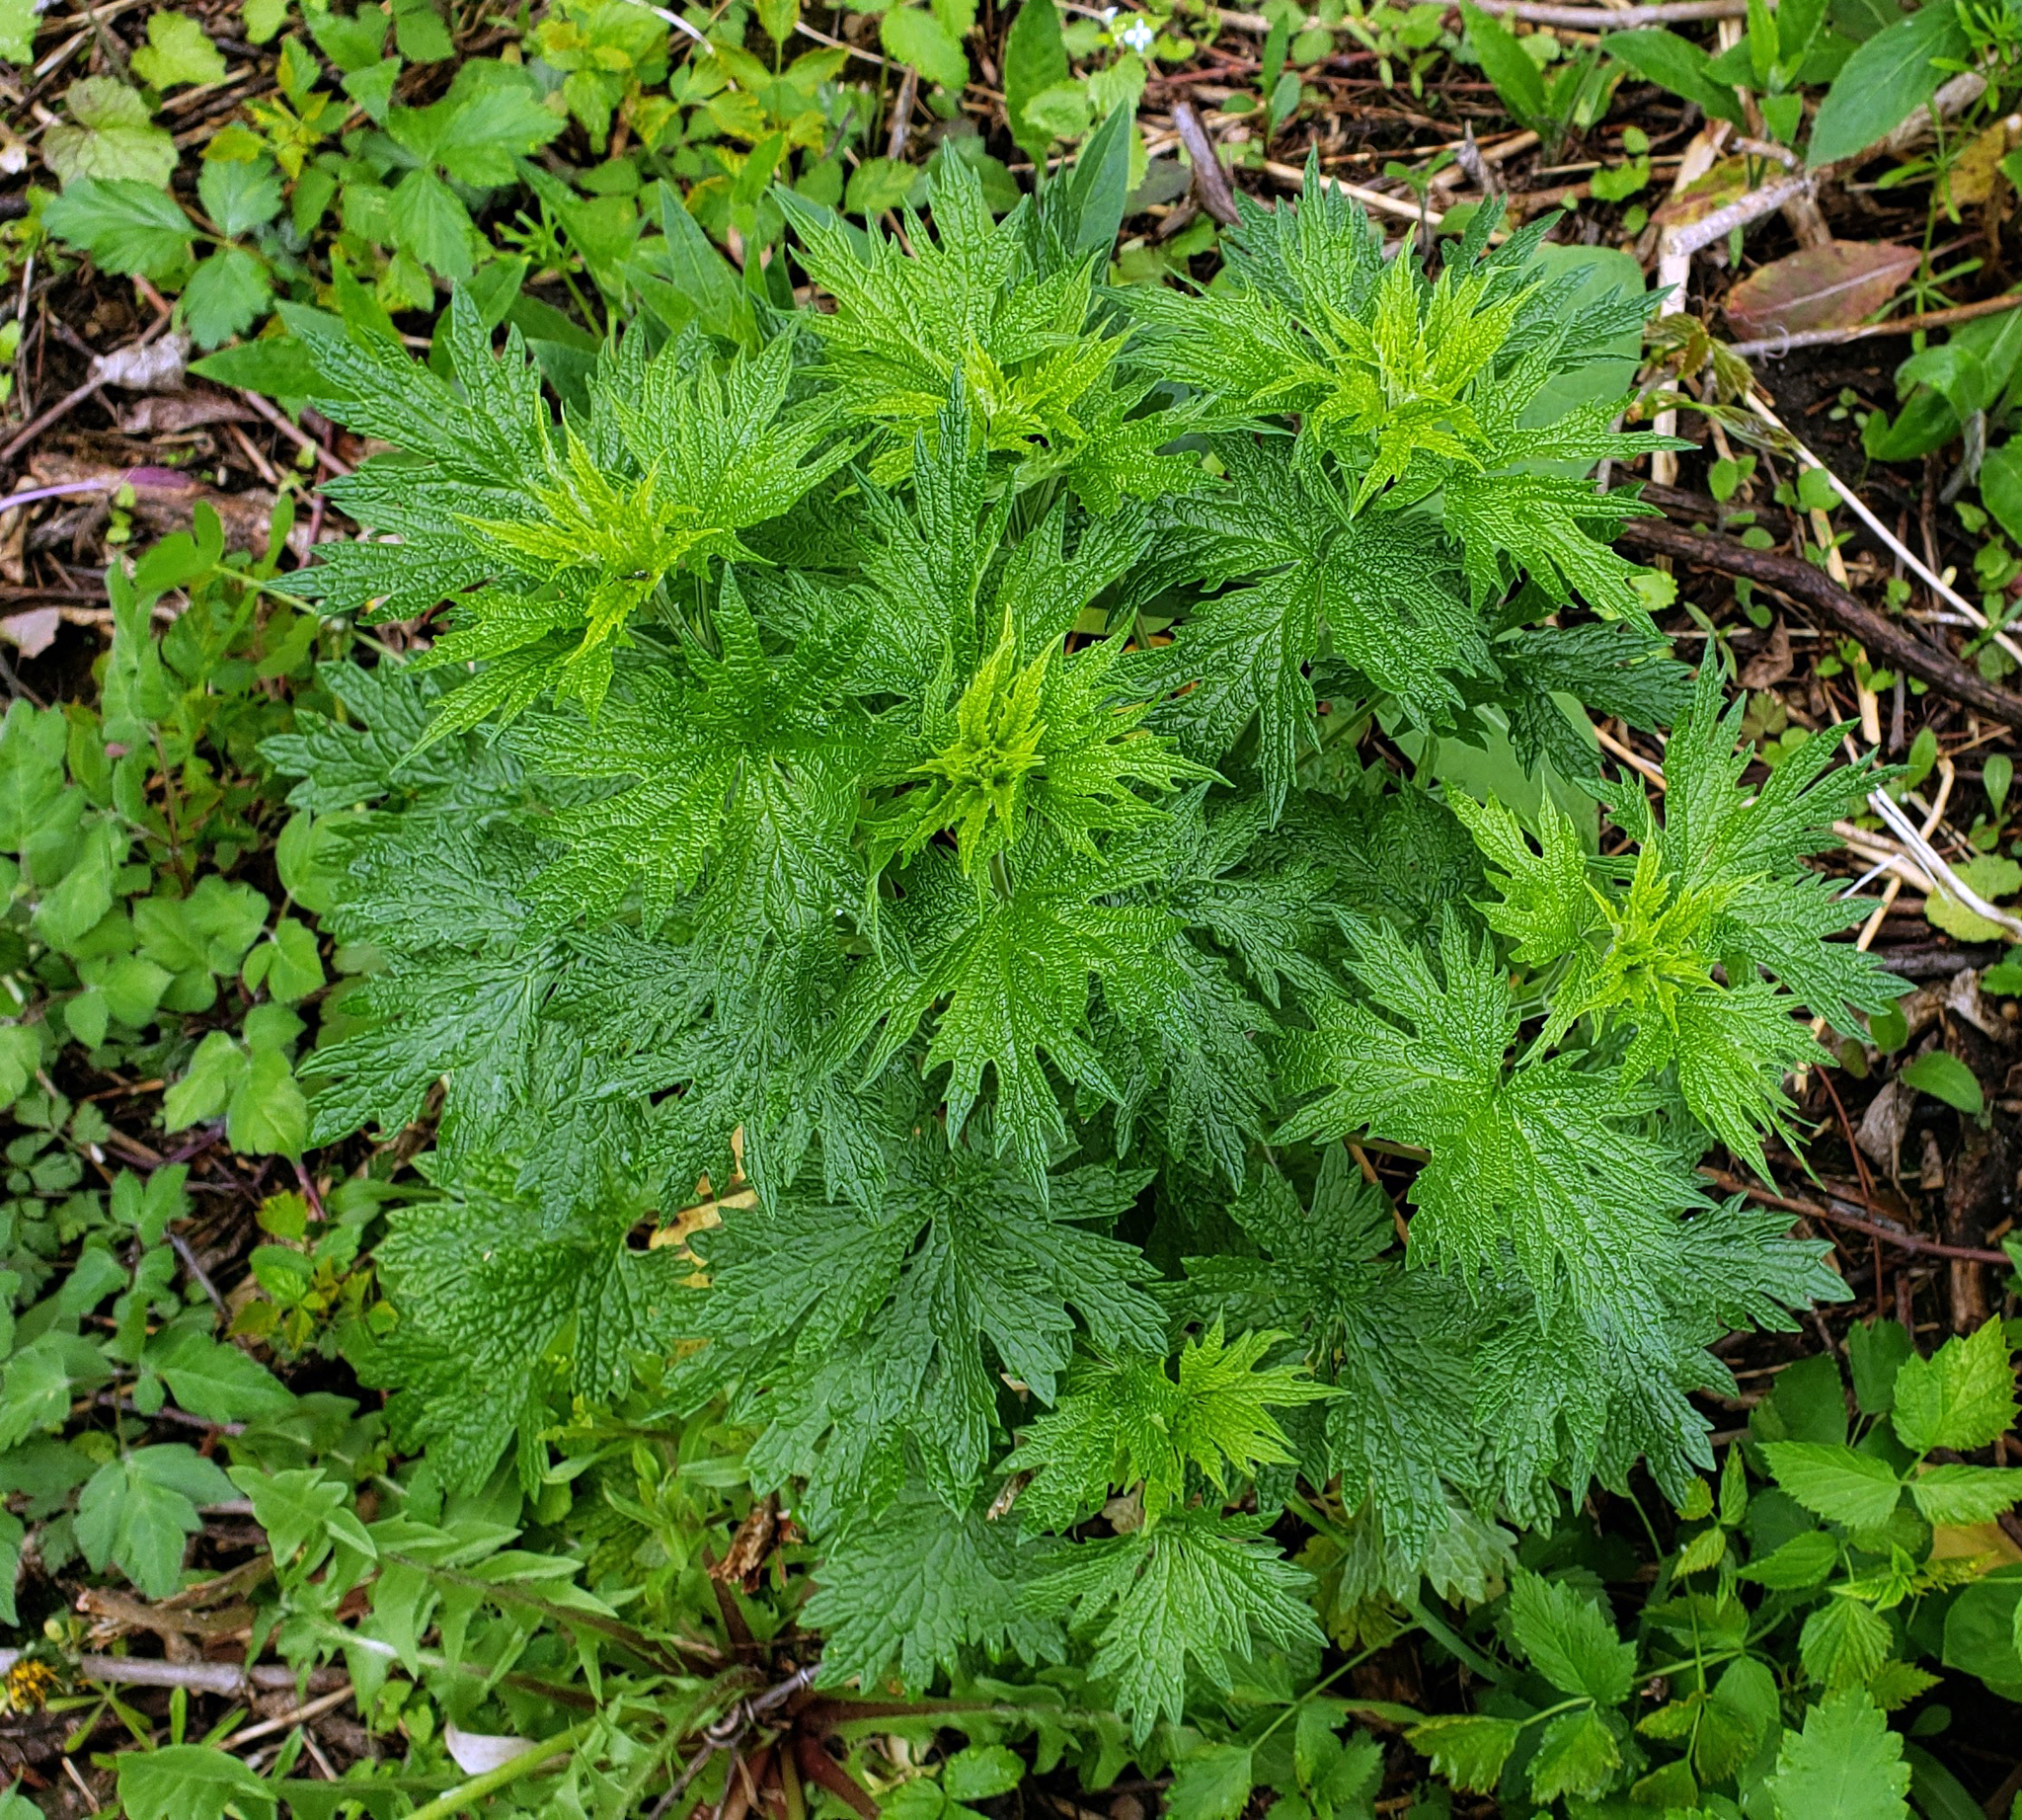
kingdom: Plantae
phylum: Tracheophyta
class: Magnoliopsida
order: Lamiales
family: Lamiaceae
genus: Leonurus
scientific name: Leonurus cardiaca
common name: Motherwort
